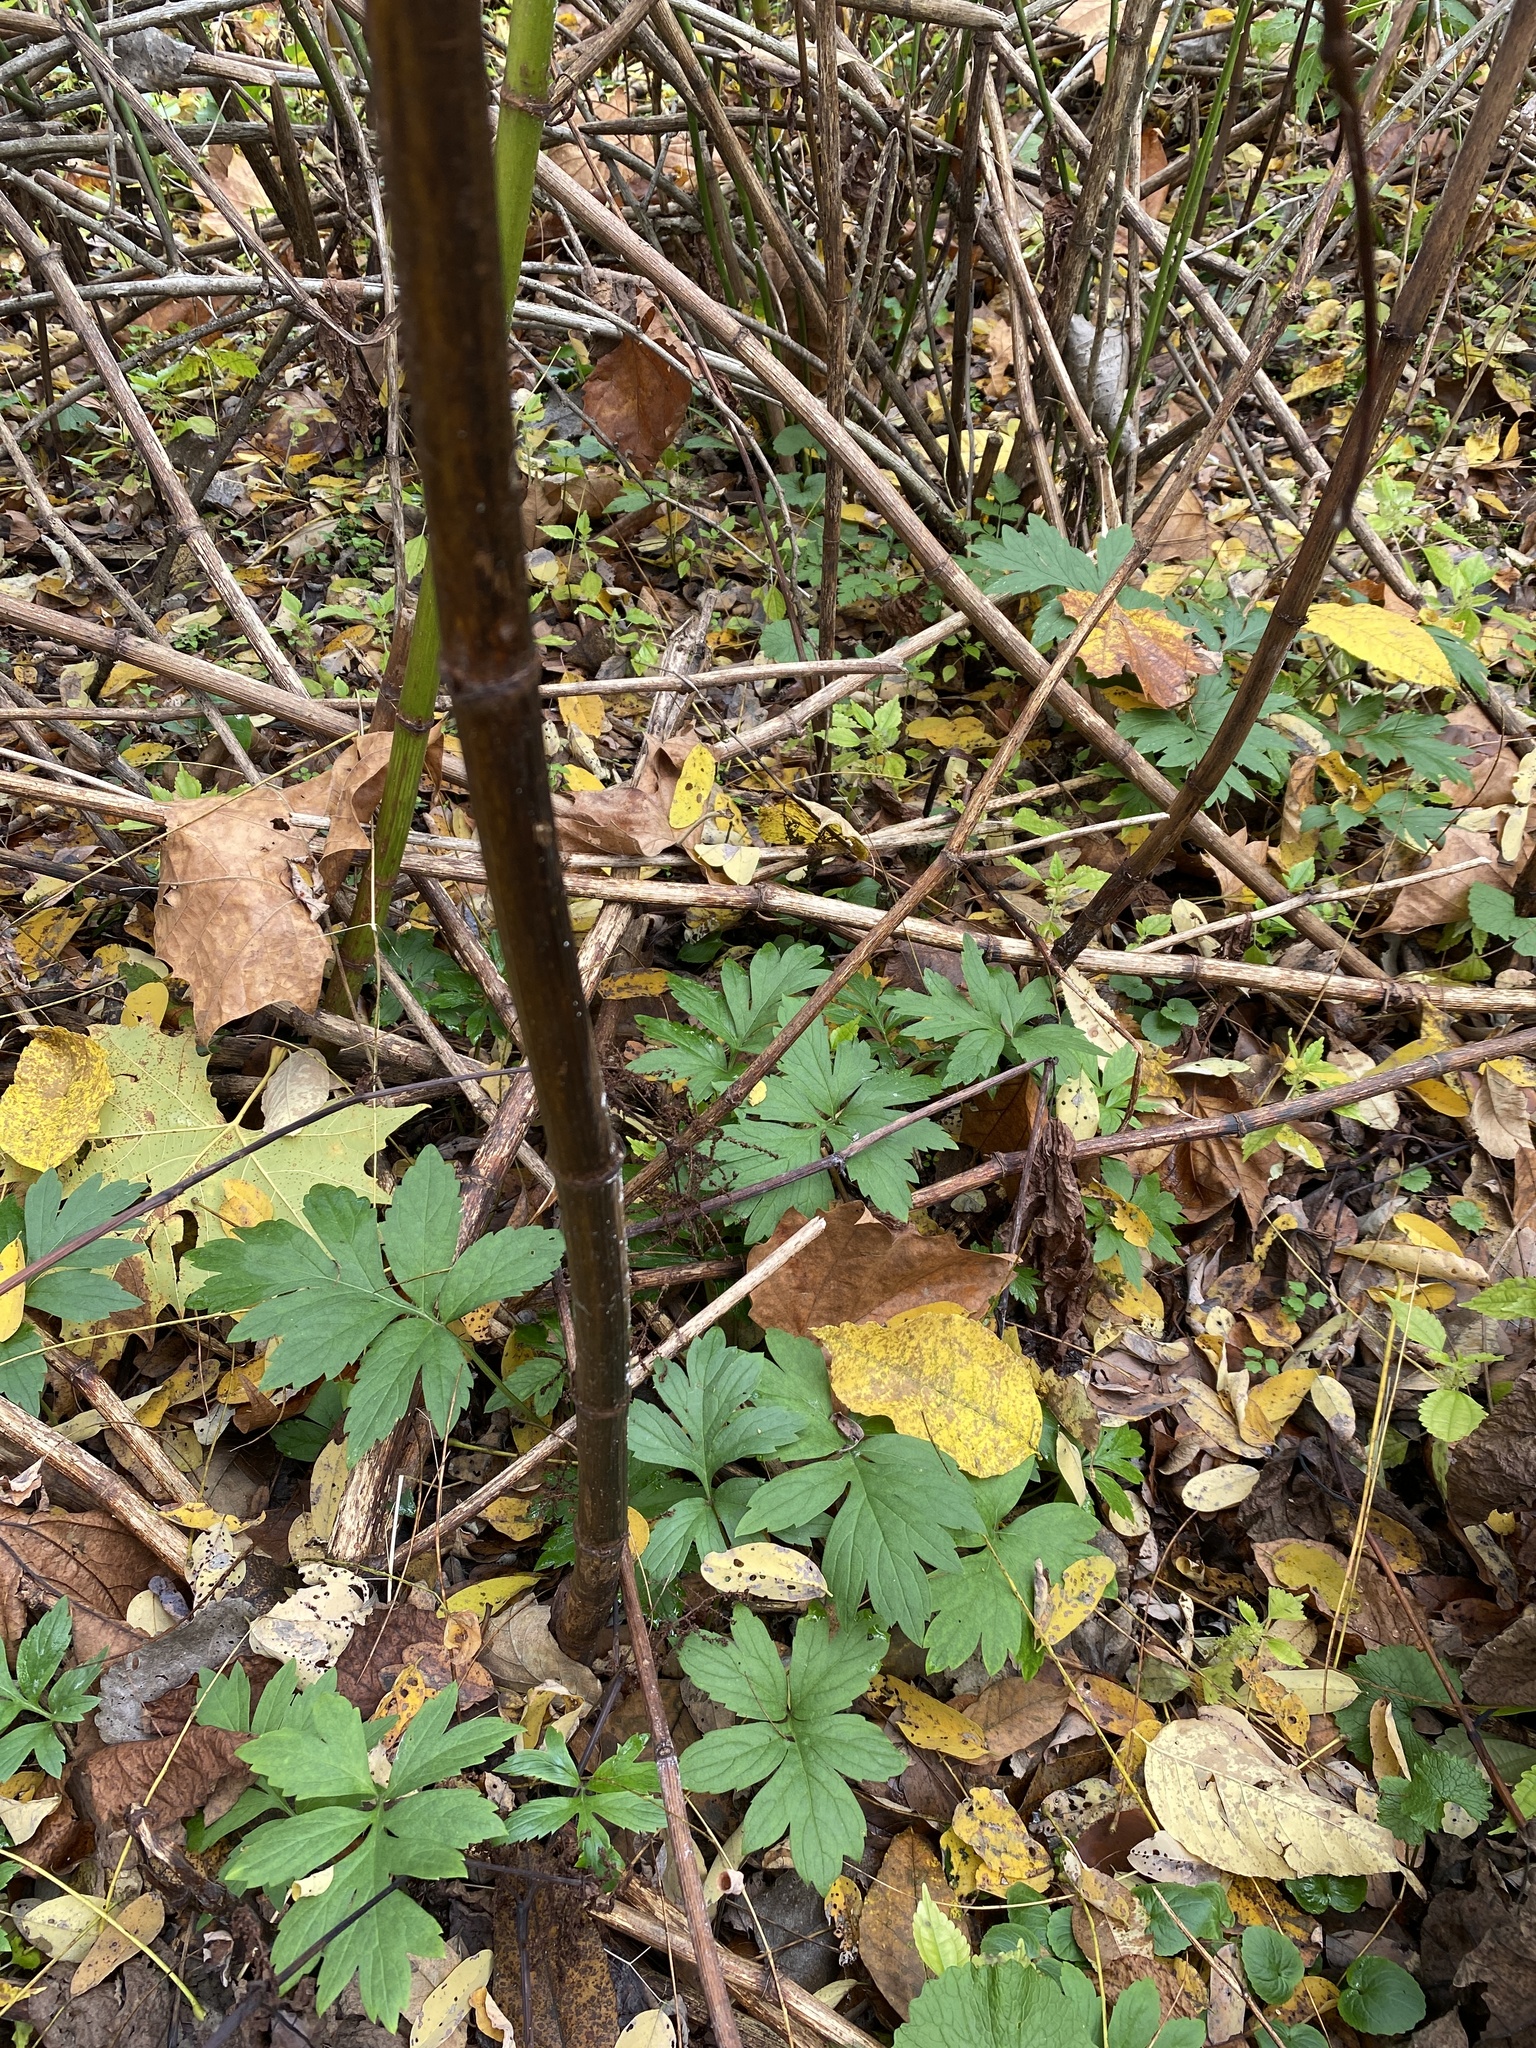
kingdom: Plantae
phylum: Tracheophyta
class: Magnoliopsida
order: Boraginales
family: Hydrophyllaceae
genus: Hydrophyllum
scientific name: Hydrophyllum virginianum
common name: Virginia waterleaf
